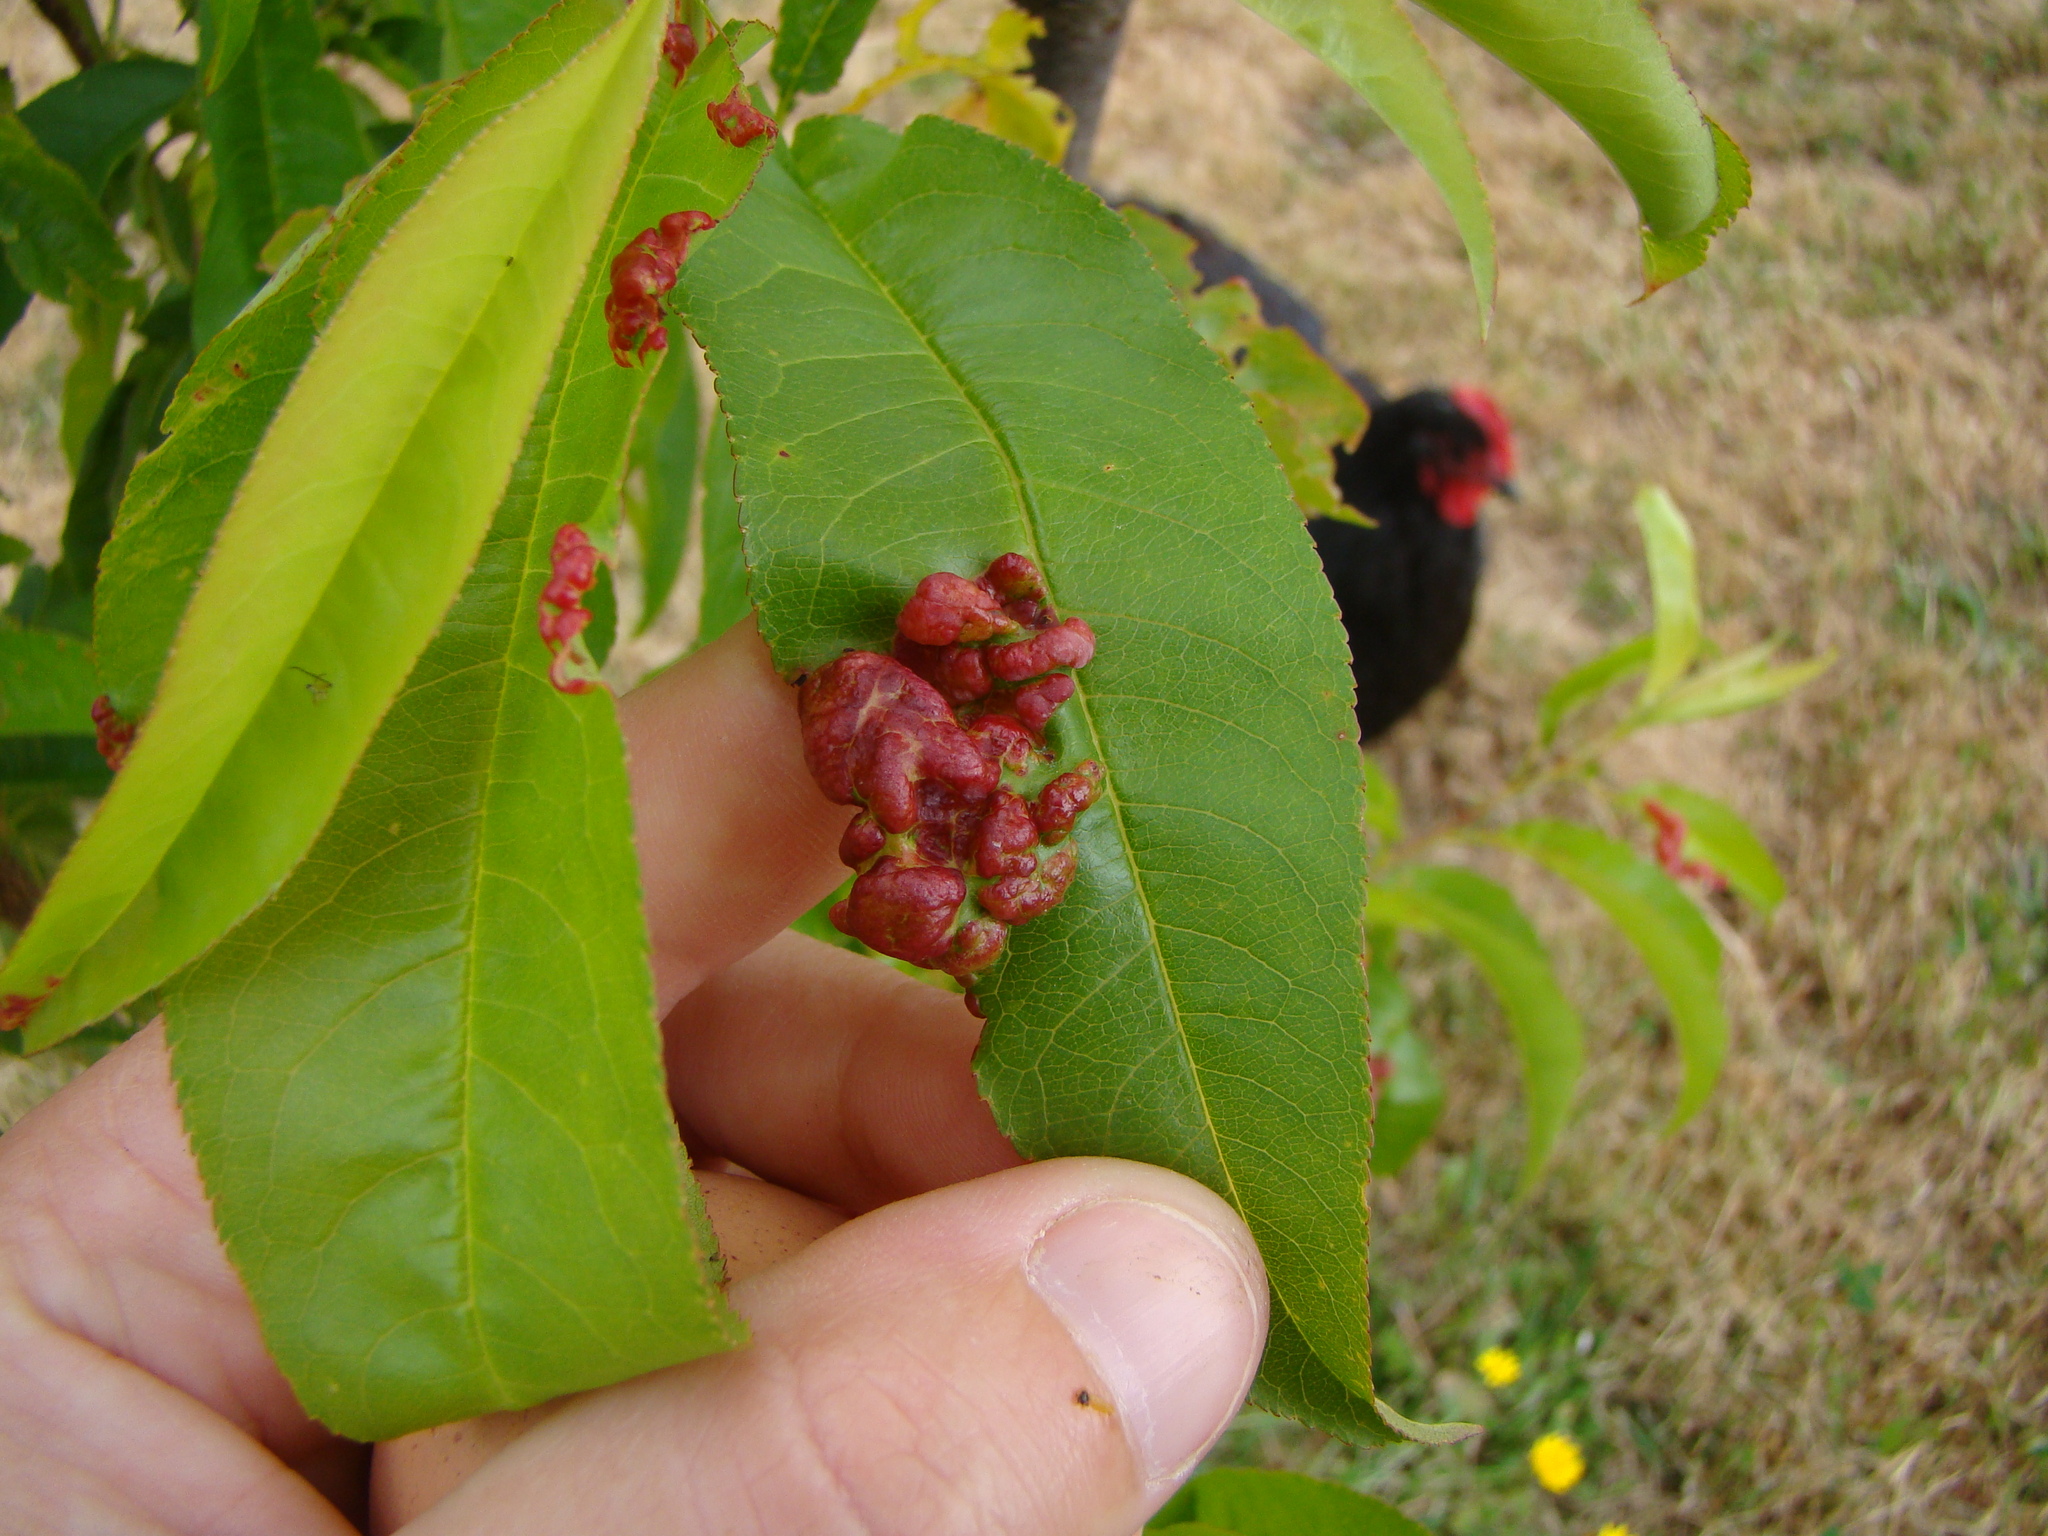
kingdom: Fungi
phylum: Ascomycota
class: Taphrinomycetes
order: Taphrinales
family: Taphrinaceae
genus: Taphrina
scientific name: Taphrina deformans
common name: Peach leaf curl
